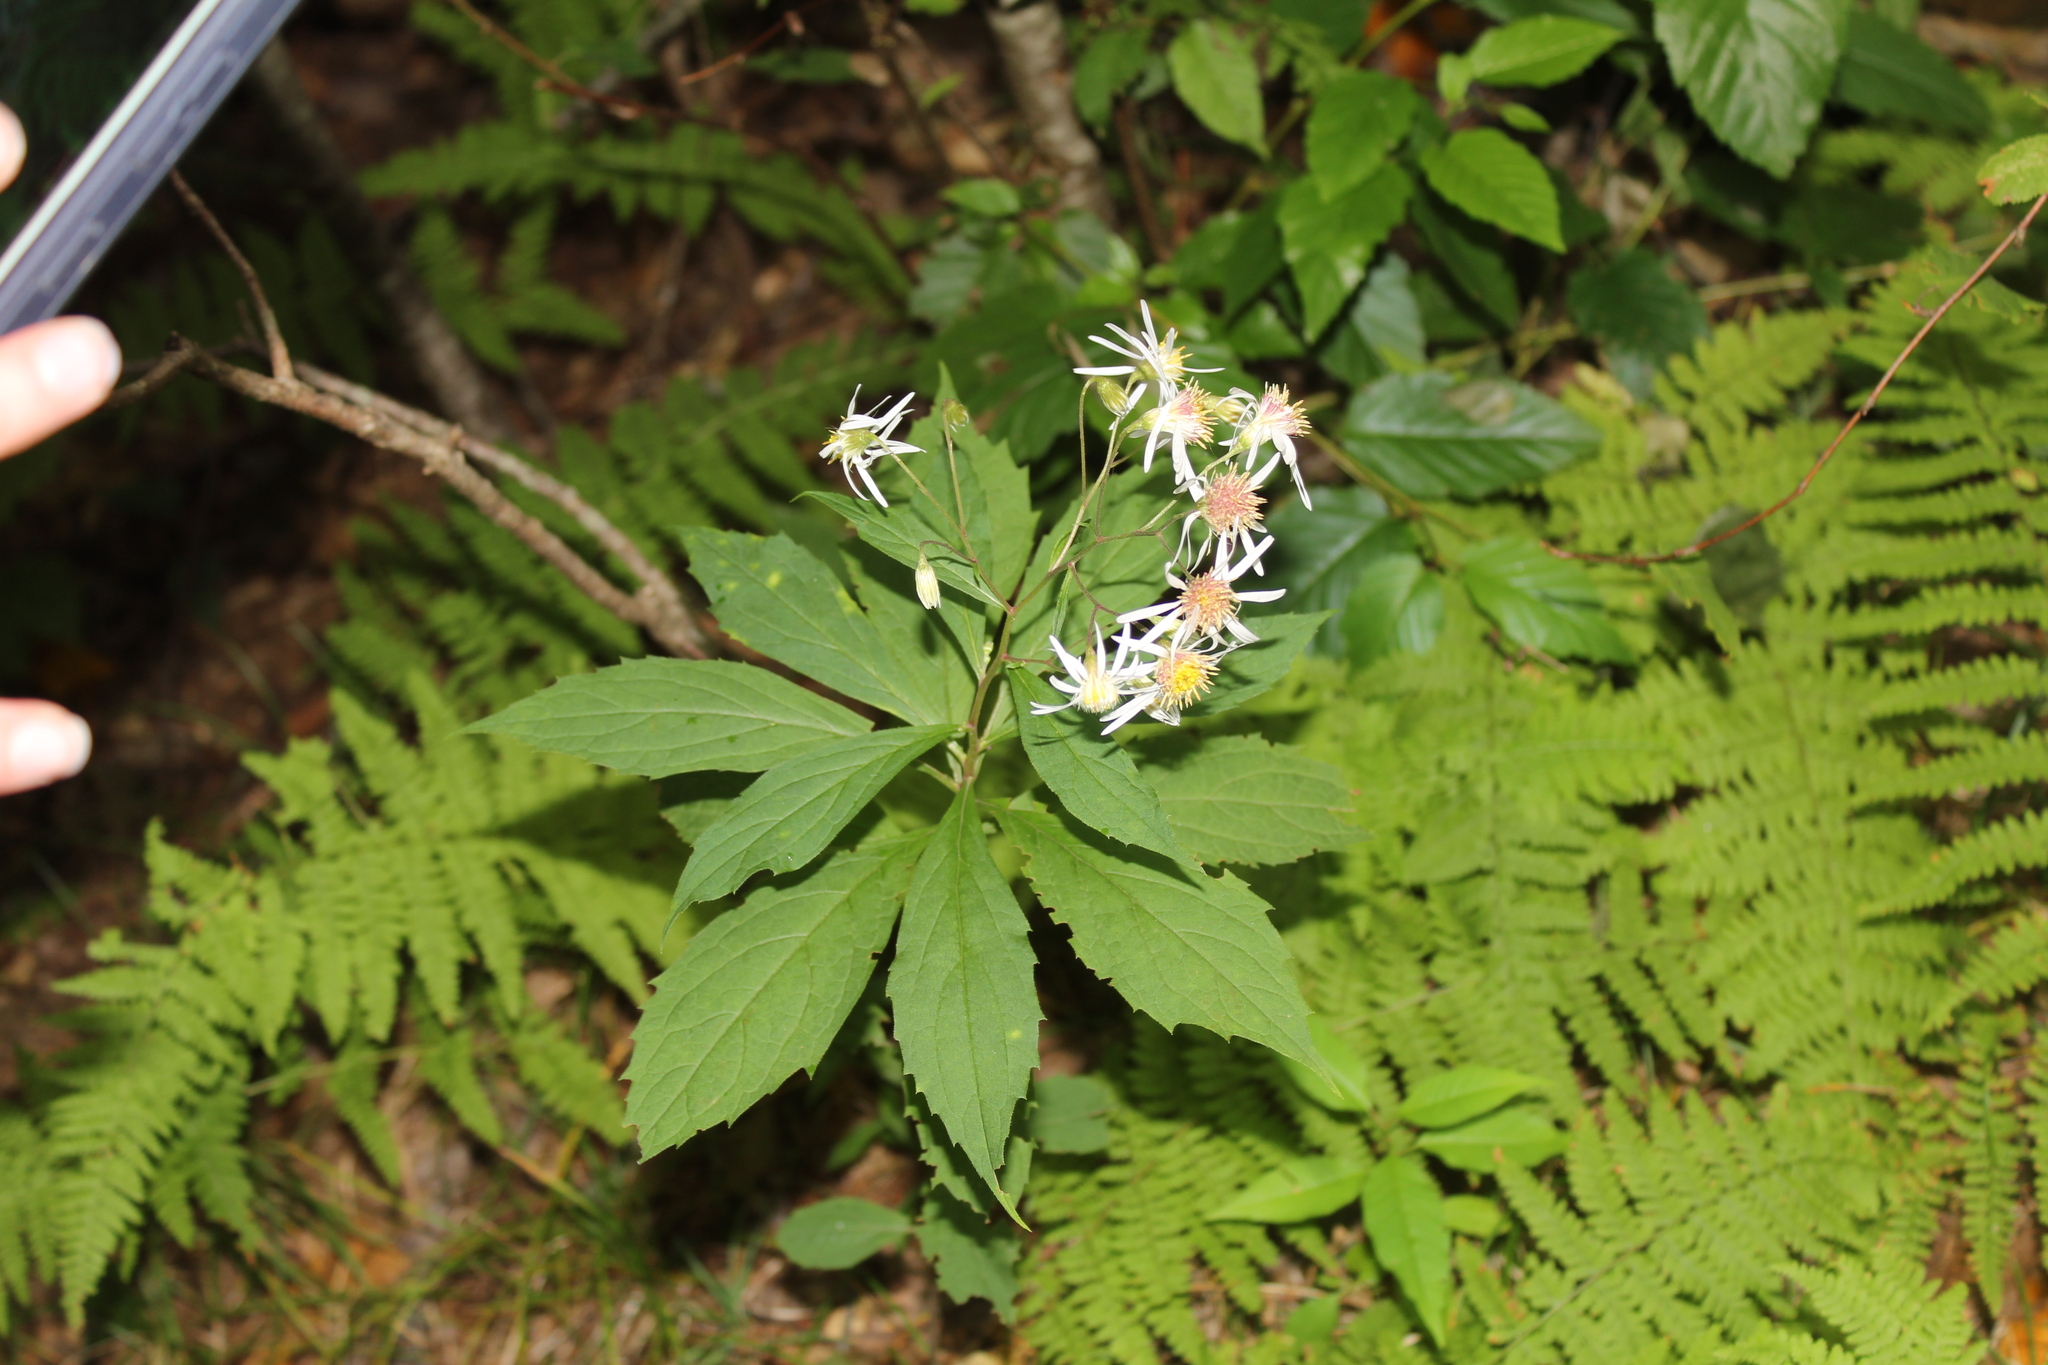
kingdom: Plantae
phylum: Tracheophyta
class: Magnoliopsida
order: Asterales
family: Asteraceae
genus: Oclemena
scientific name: Oclemena acuminata
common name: Mountain aster
